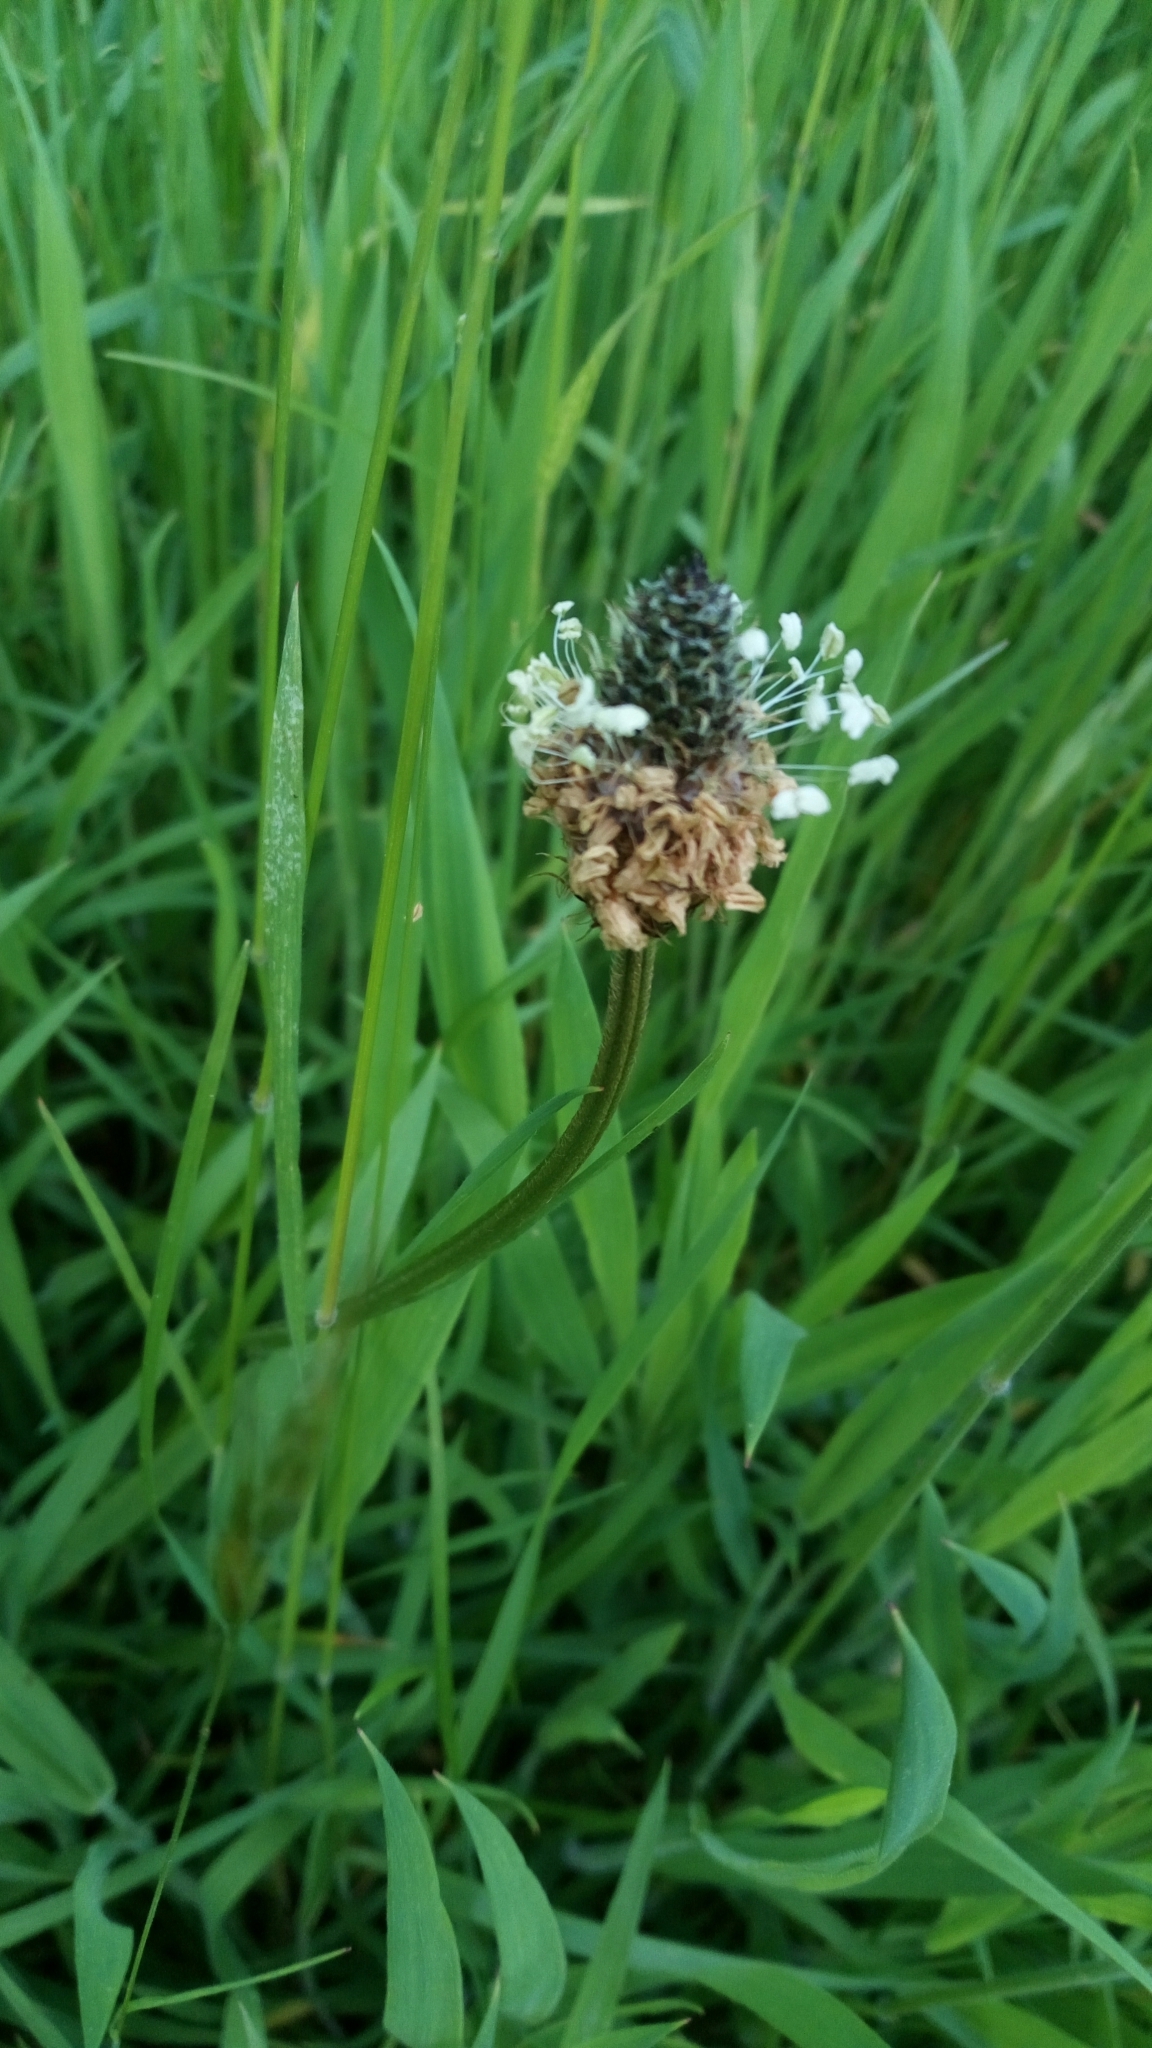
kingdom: Plantae
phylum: Tracheophyta
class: Magnoliopsida
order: Lamiales
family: Plantaginaceae
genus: Plantago
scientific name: Plantago lanceolata
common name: Ribwort plantain
